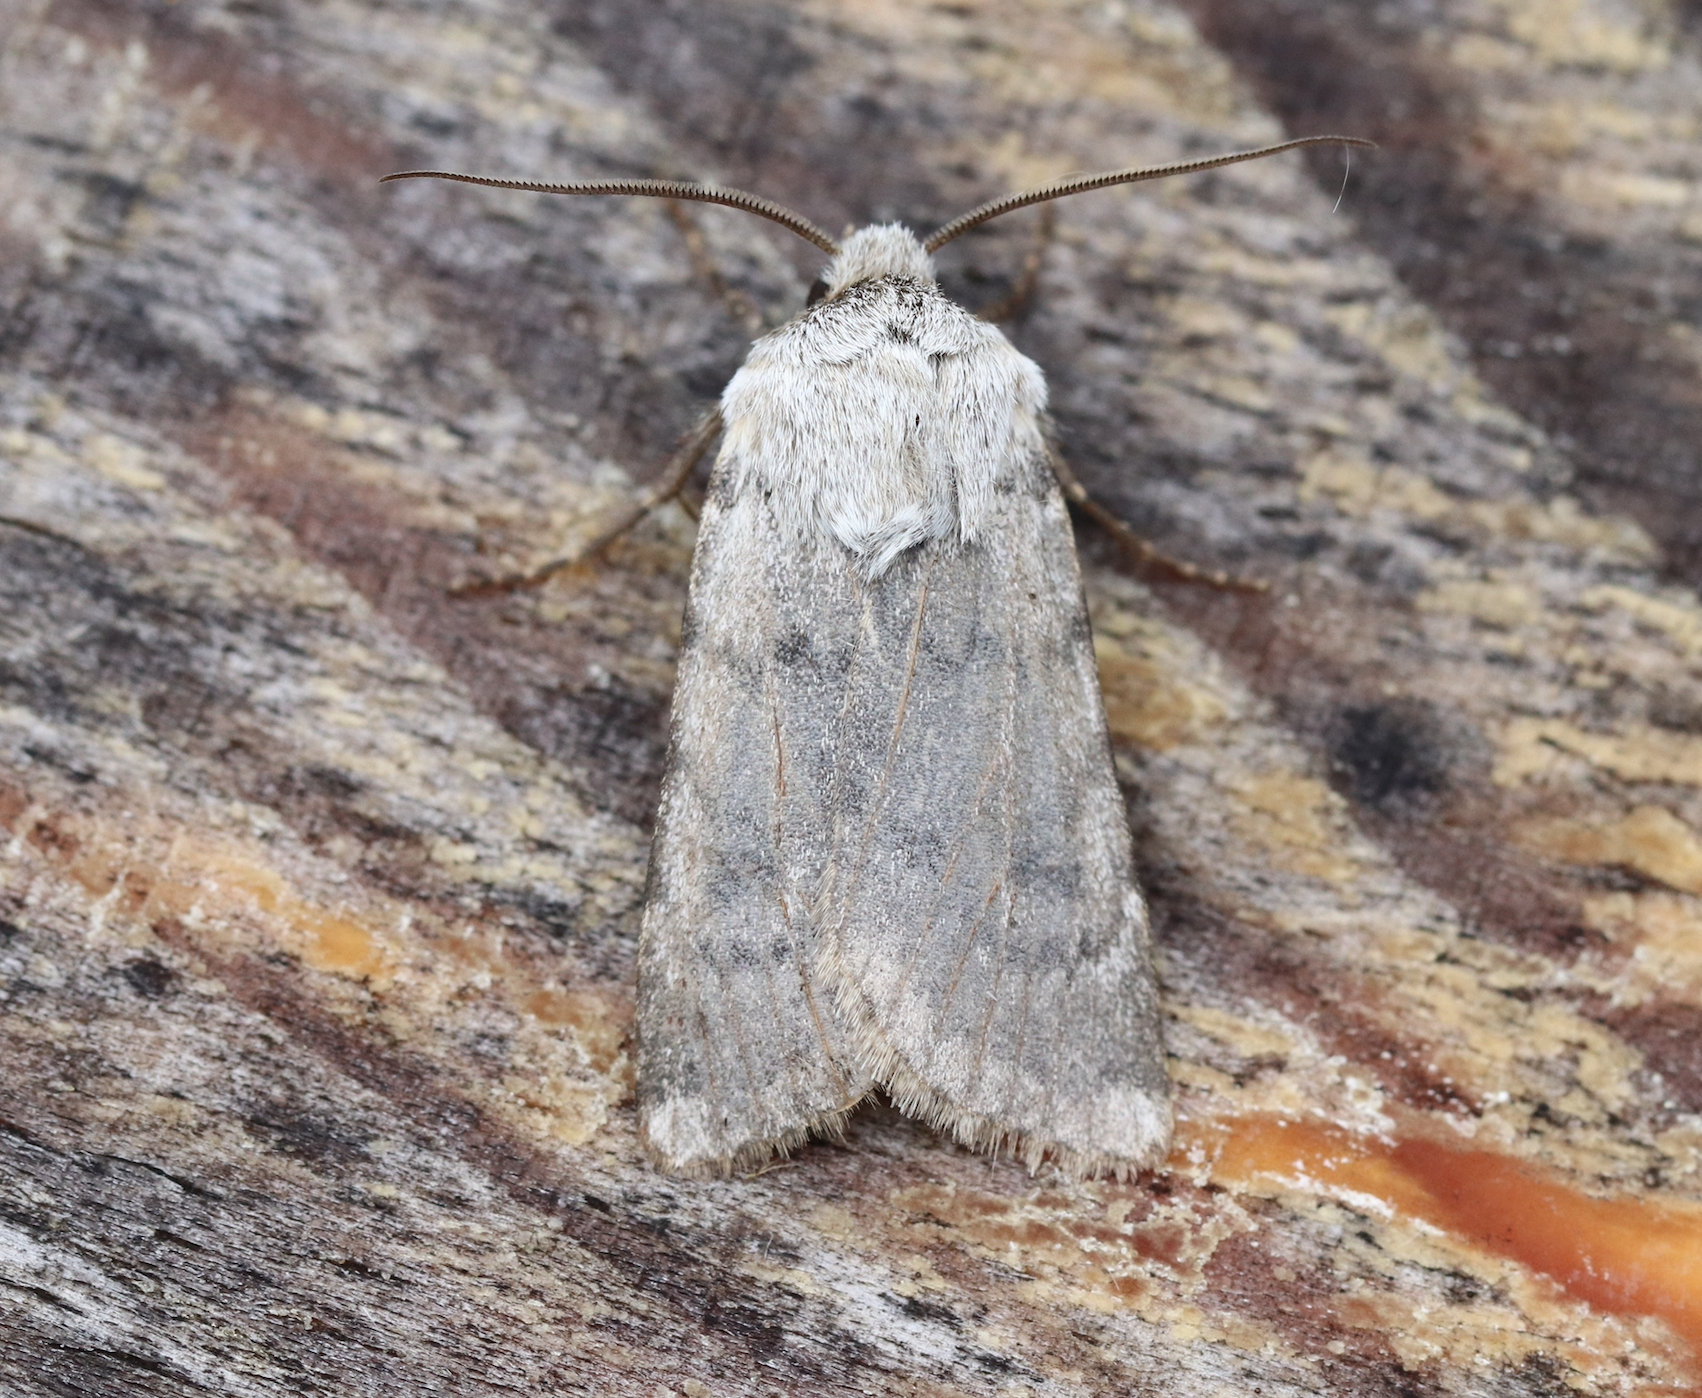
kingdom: Animalia
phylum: Arthropoda
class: Insecta
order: Lepidoptera
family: Noctuidae
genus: Agrotis
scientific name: Agrotis simplonia
